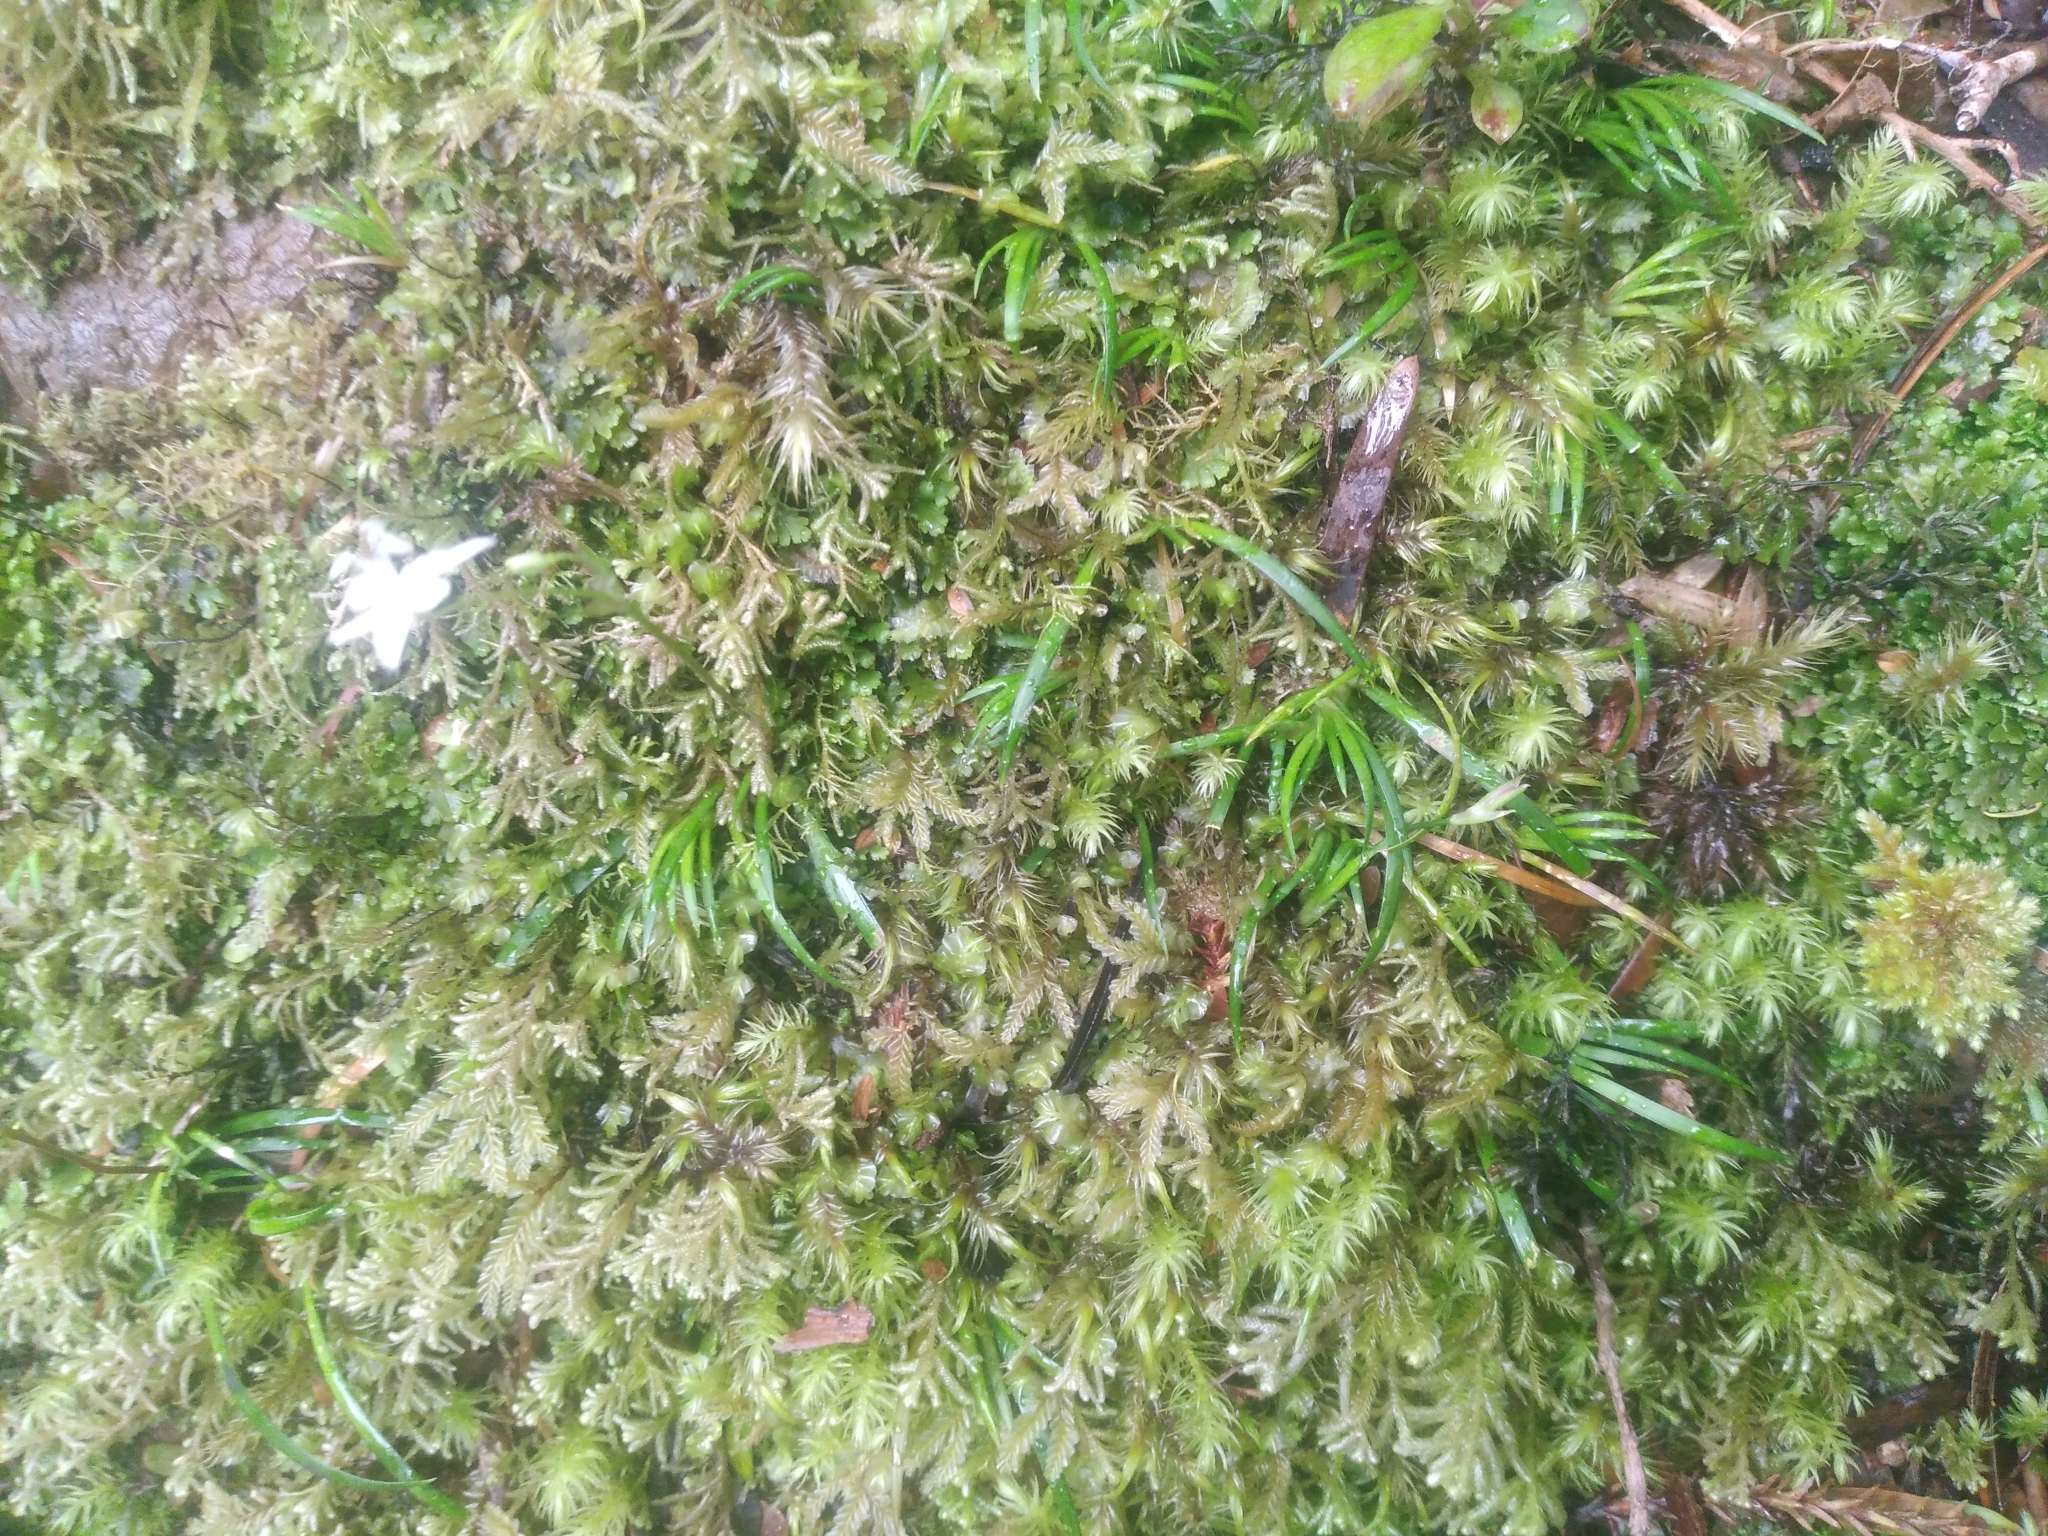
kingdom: Plantae
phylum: Tracheophyta
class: Liliopsida
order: Asparagales
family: Iridaceae
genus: Libertia
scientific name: Libertia micrantha
